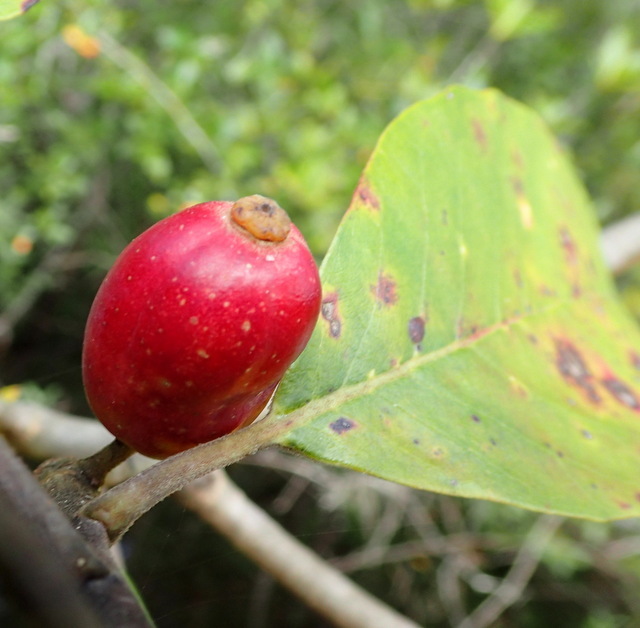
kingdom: Plantae
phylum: Tracheophyta
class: Magnoliopsida
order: Cornales
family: Nyssaceae
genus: Nyssa
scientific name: Nyssa ogeche
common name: Ogeechee tupelo
